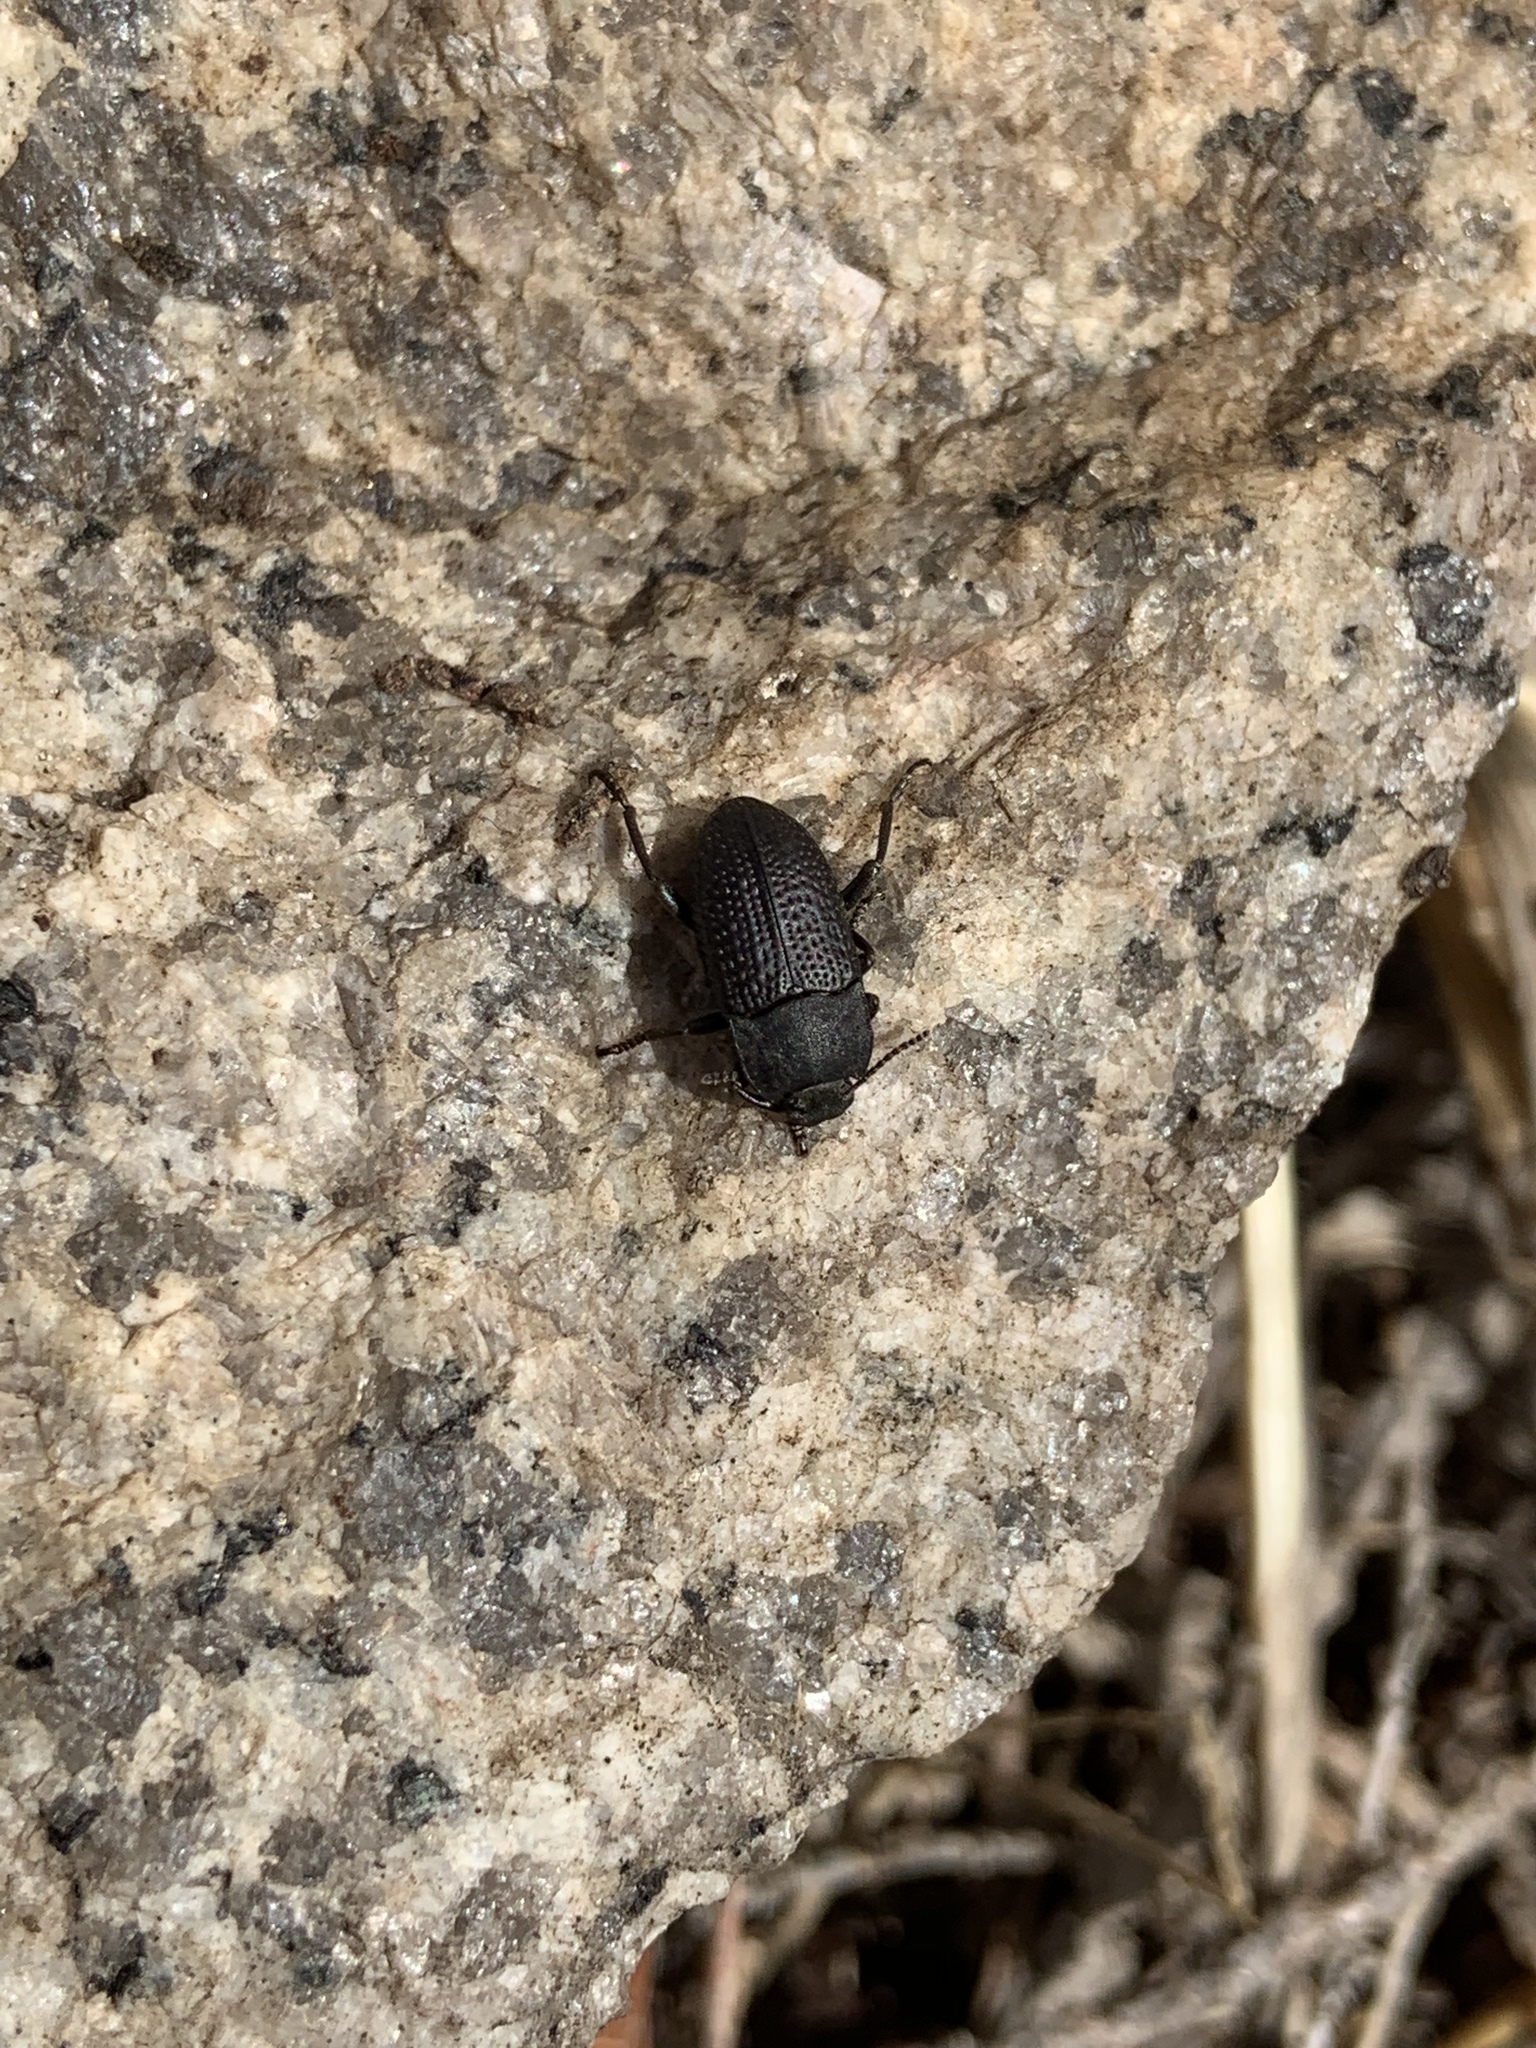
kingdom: Animalia
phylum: Arthropoda
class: Insecta
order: Coleoptera
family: Tenebrionidae
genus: Asiopus
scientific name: Asiopus
